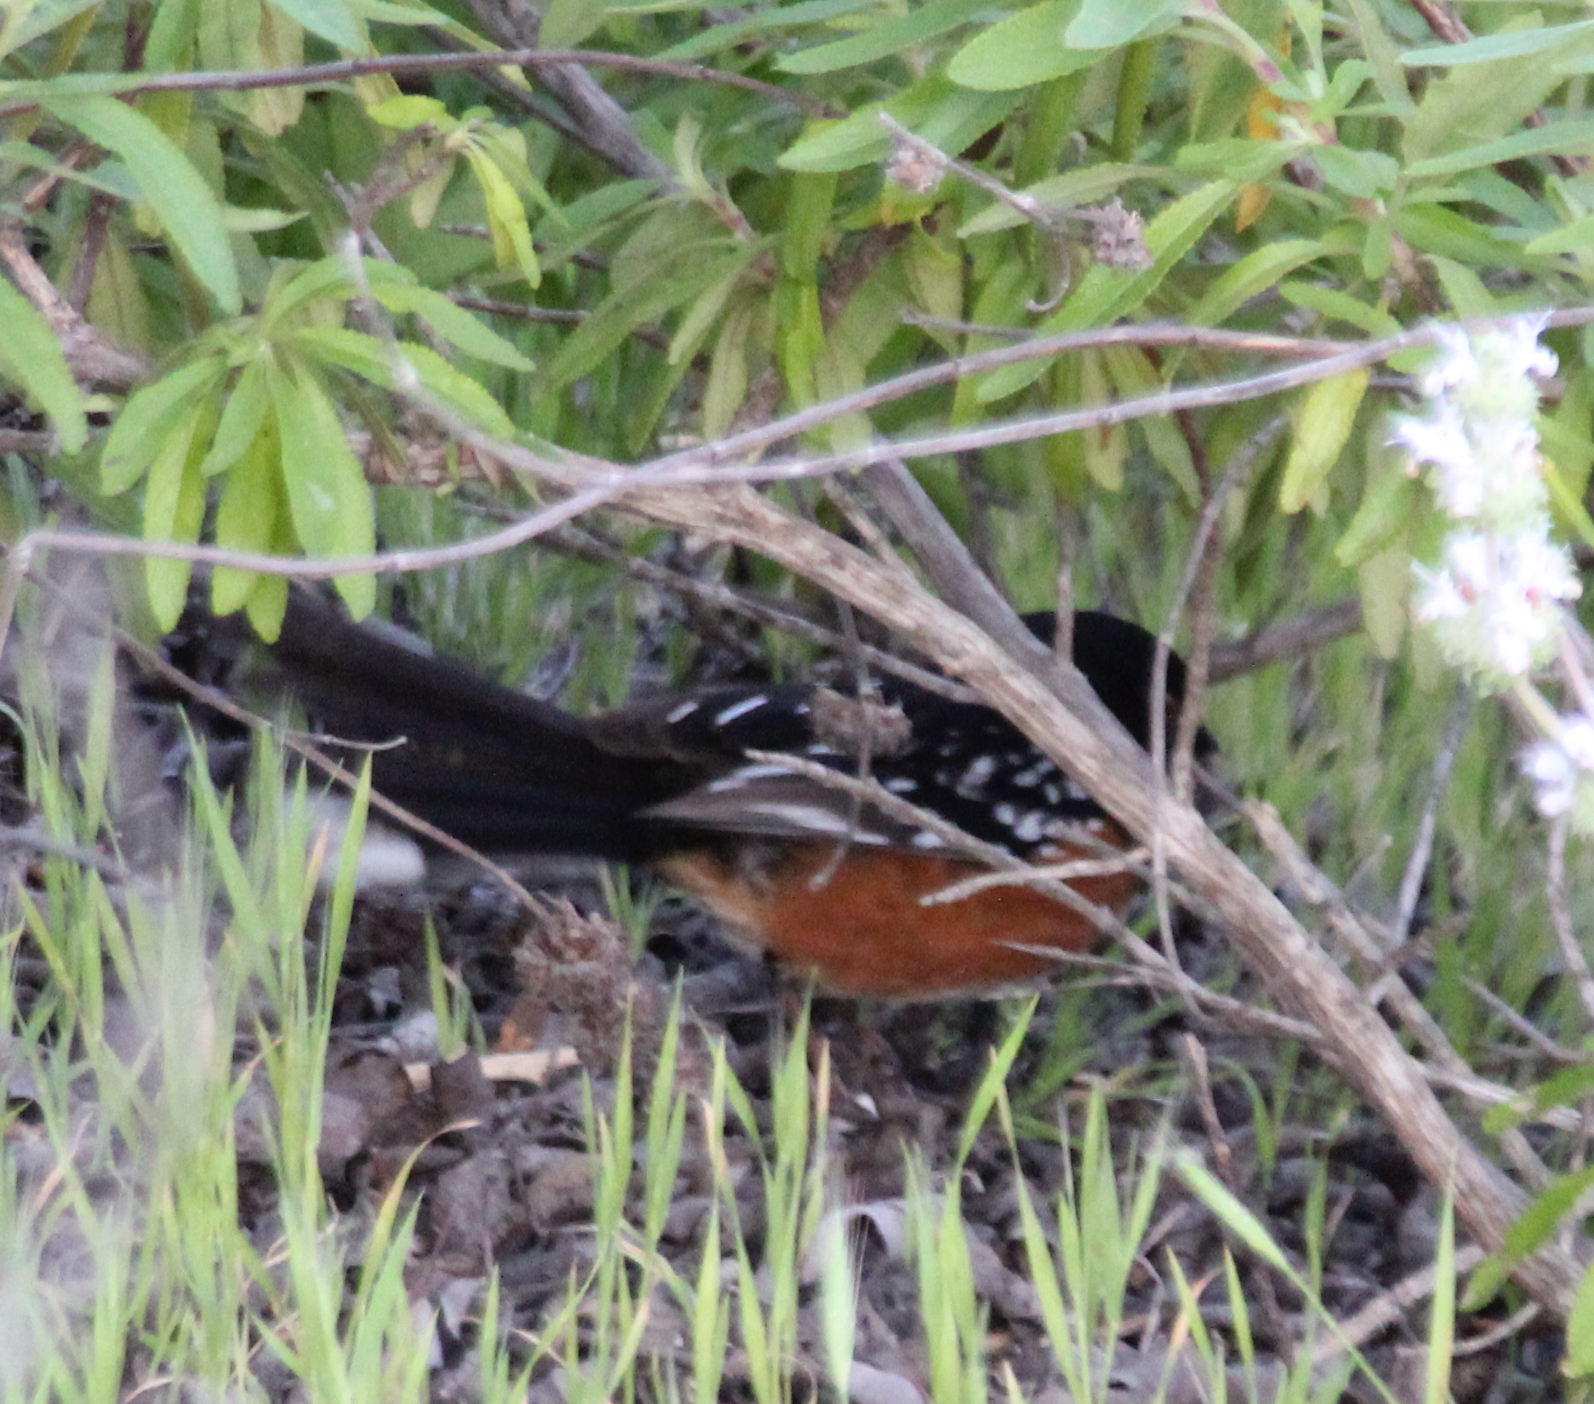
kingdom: Animalia
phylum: Chordata
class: Aves
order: Passeriformes
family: Passerellidae
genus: Pipilo
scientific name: Pipilo maculatus
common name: Spotted towhee
